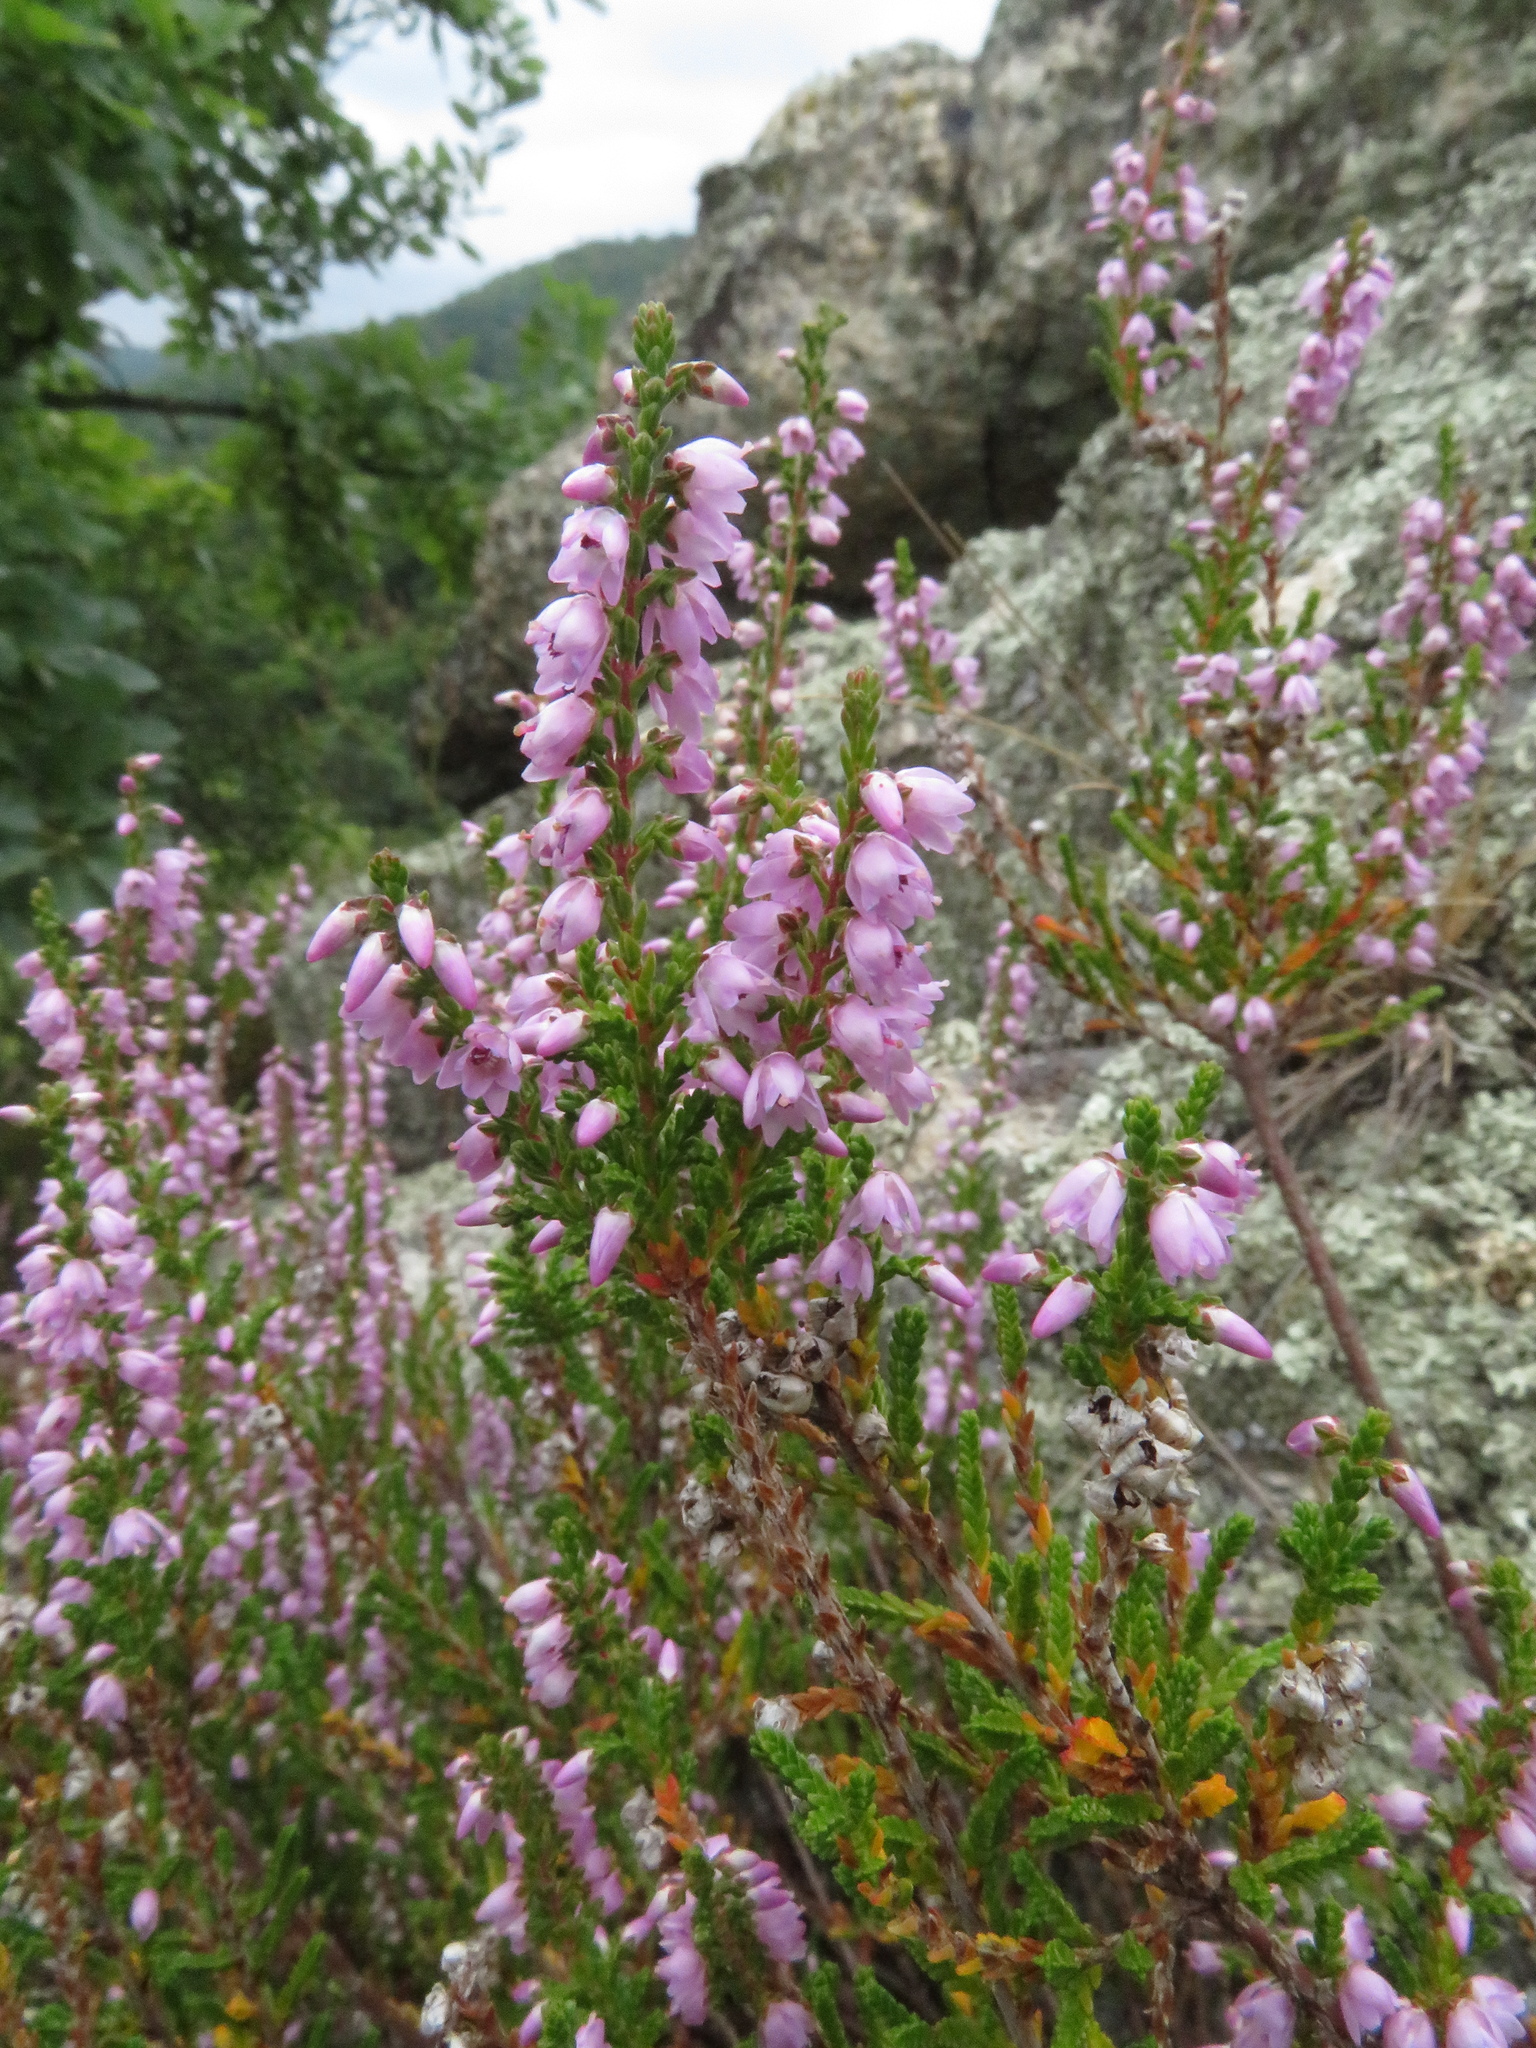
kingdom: Plantae
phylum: Tracheophyta
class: Magnoliopsida
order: Ericales
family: Ericaceae
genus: Calluna
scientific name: Calluna vulgaris
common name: Heather
